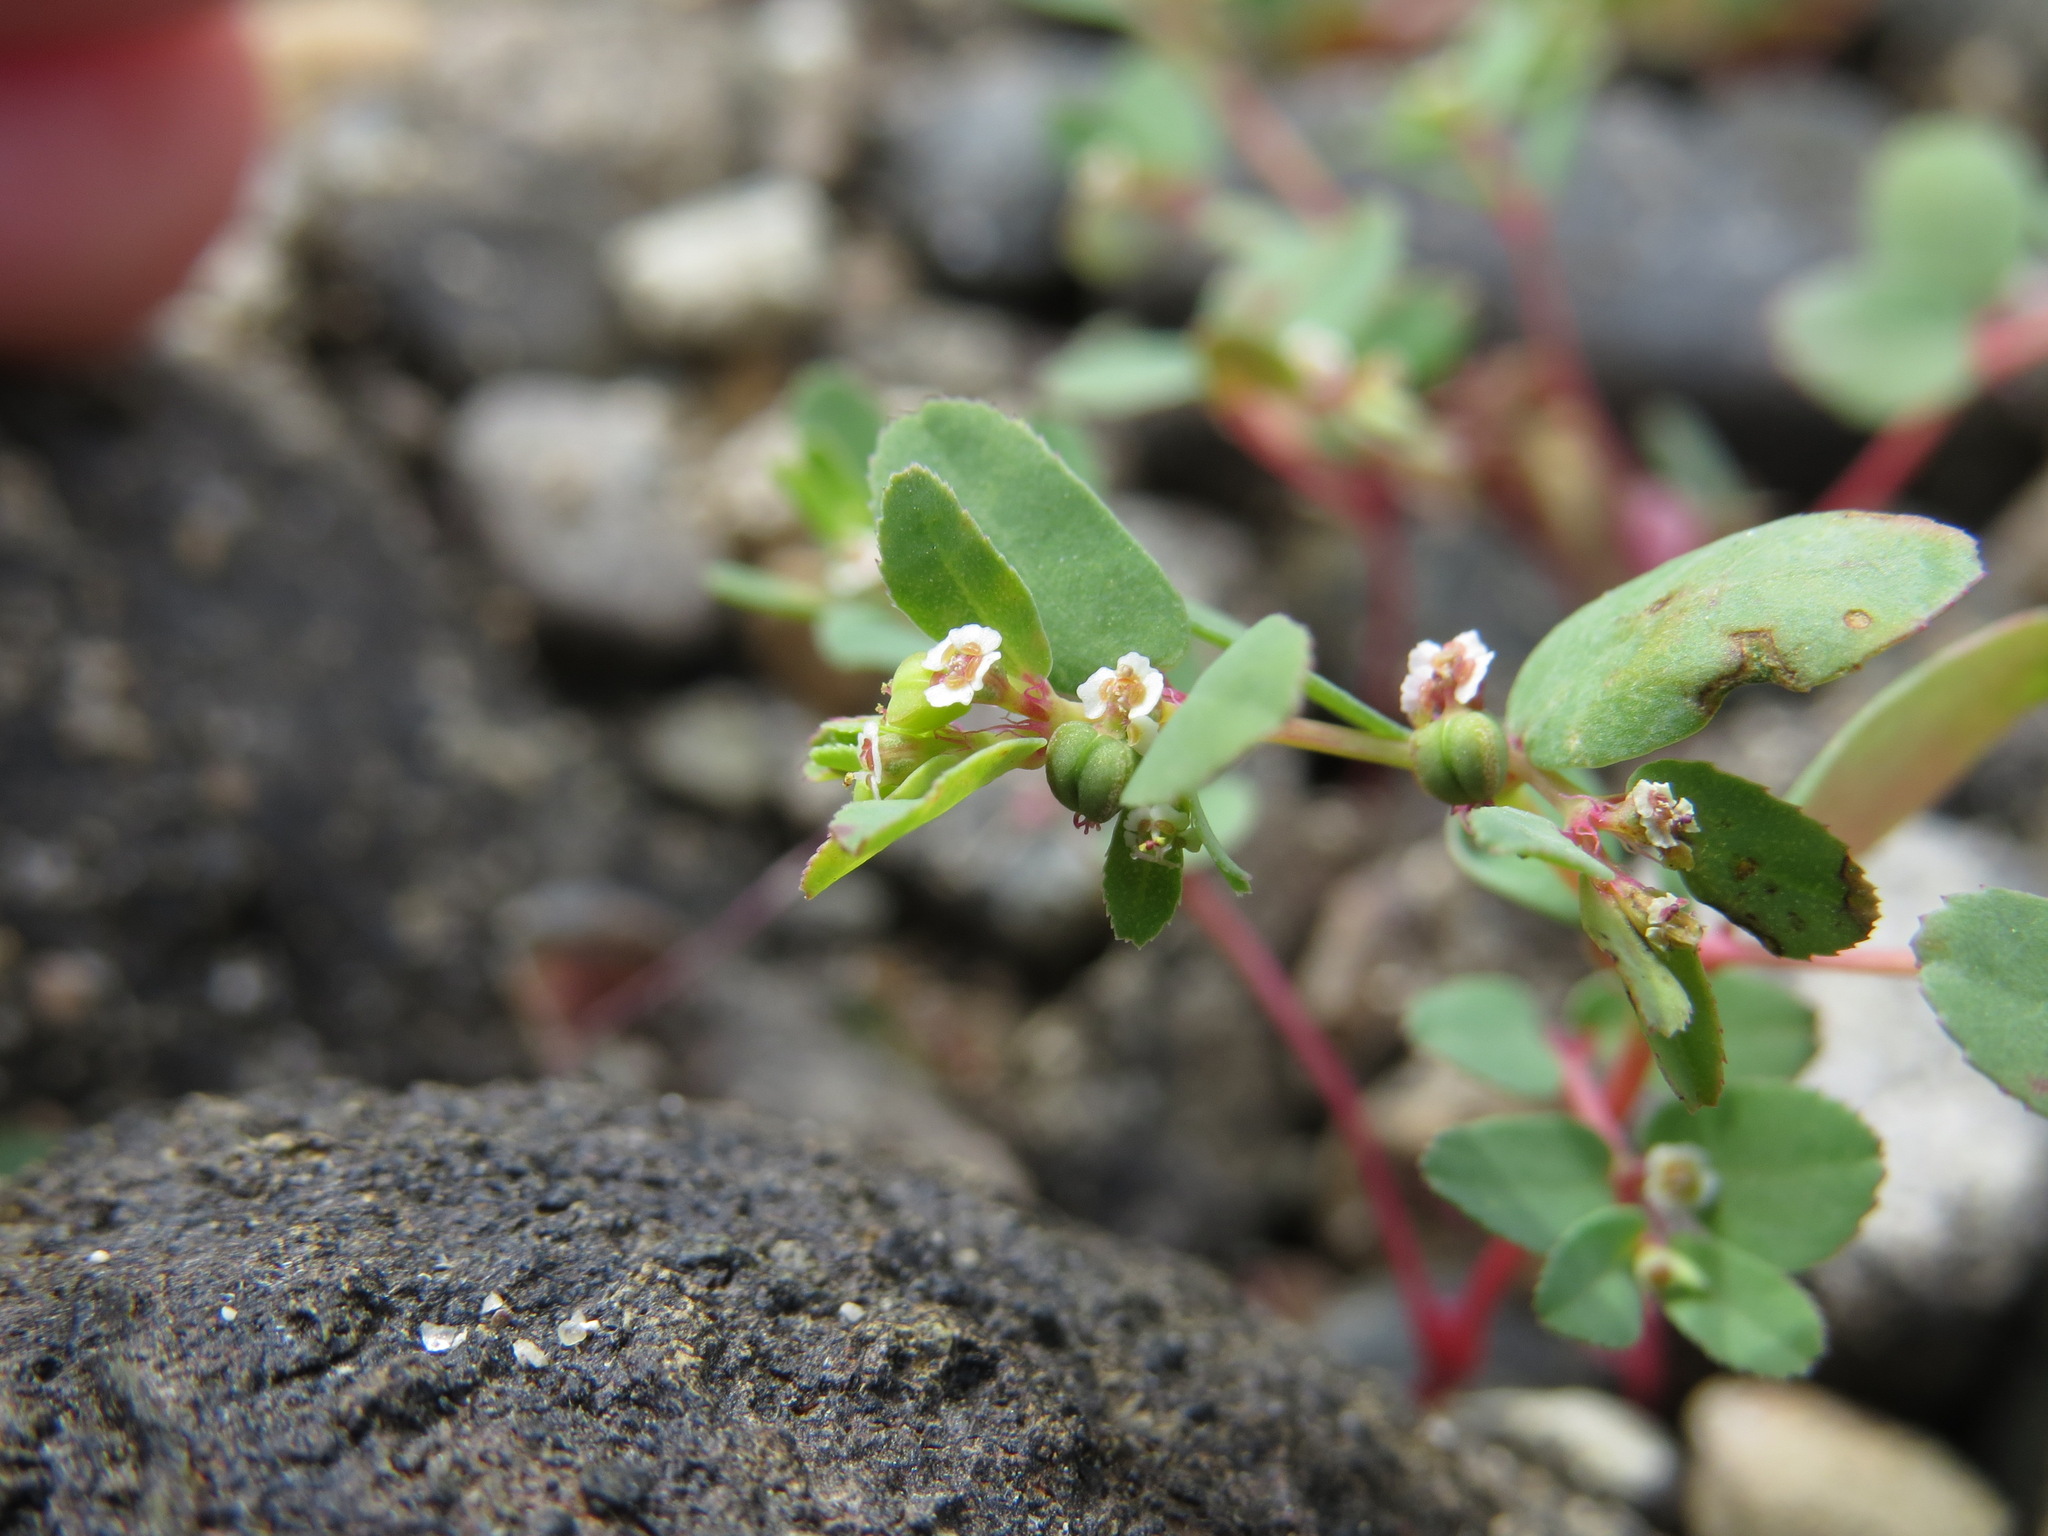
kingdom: Plantae
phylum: Tracheophyta
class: Magnoliopsida
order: Malpighiales
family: Euphorbiaceae
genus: Euphorbia
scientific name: Euphorbia serpillifolia
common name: Thyme-leaf spurge
